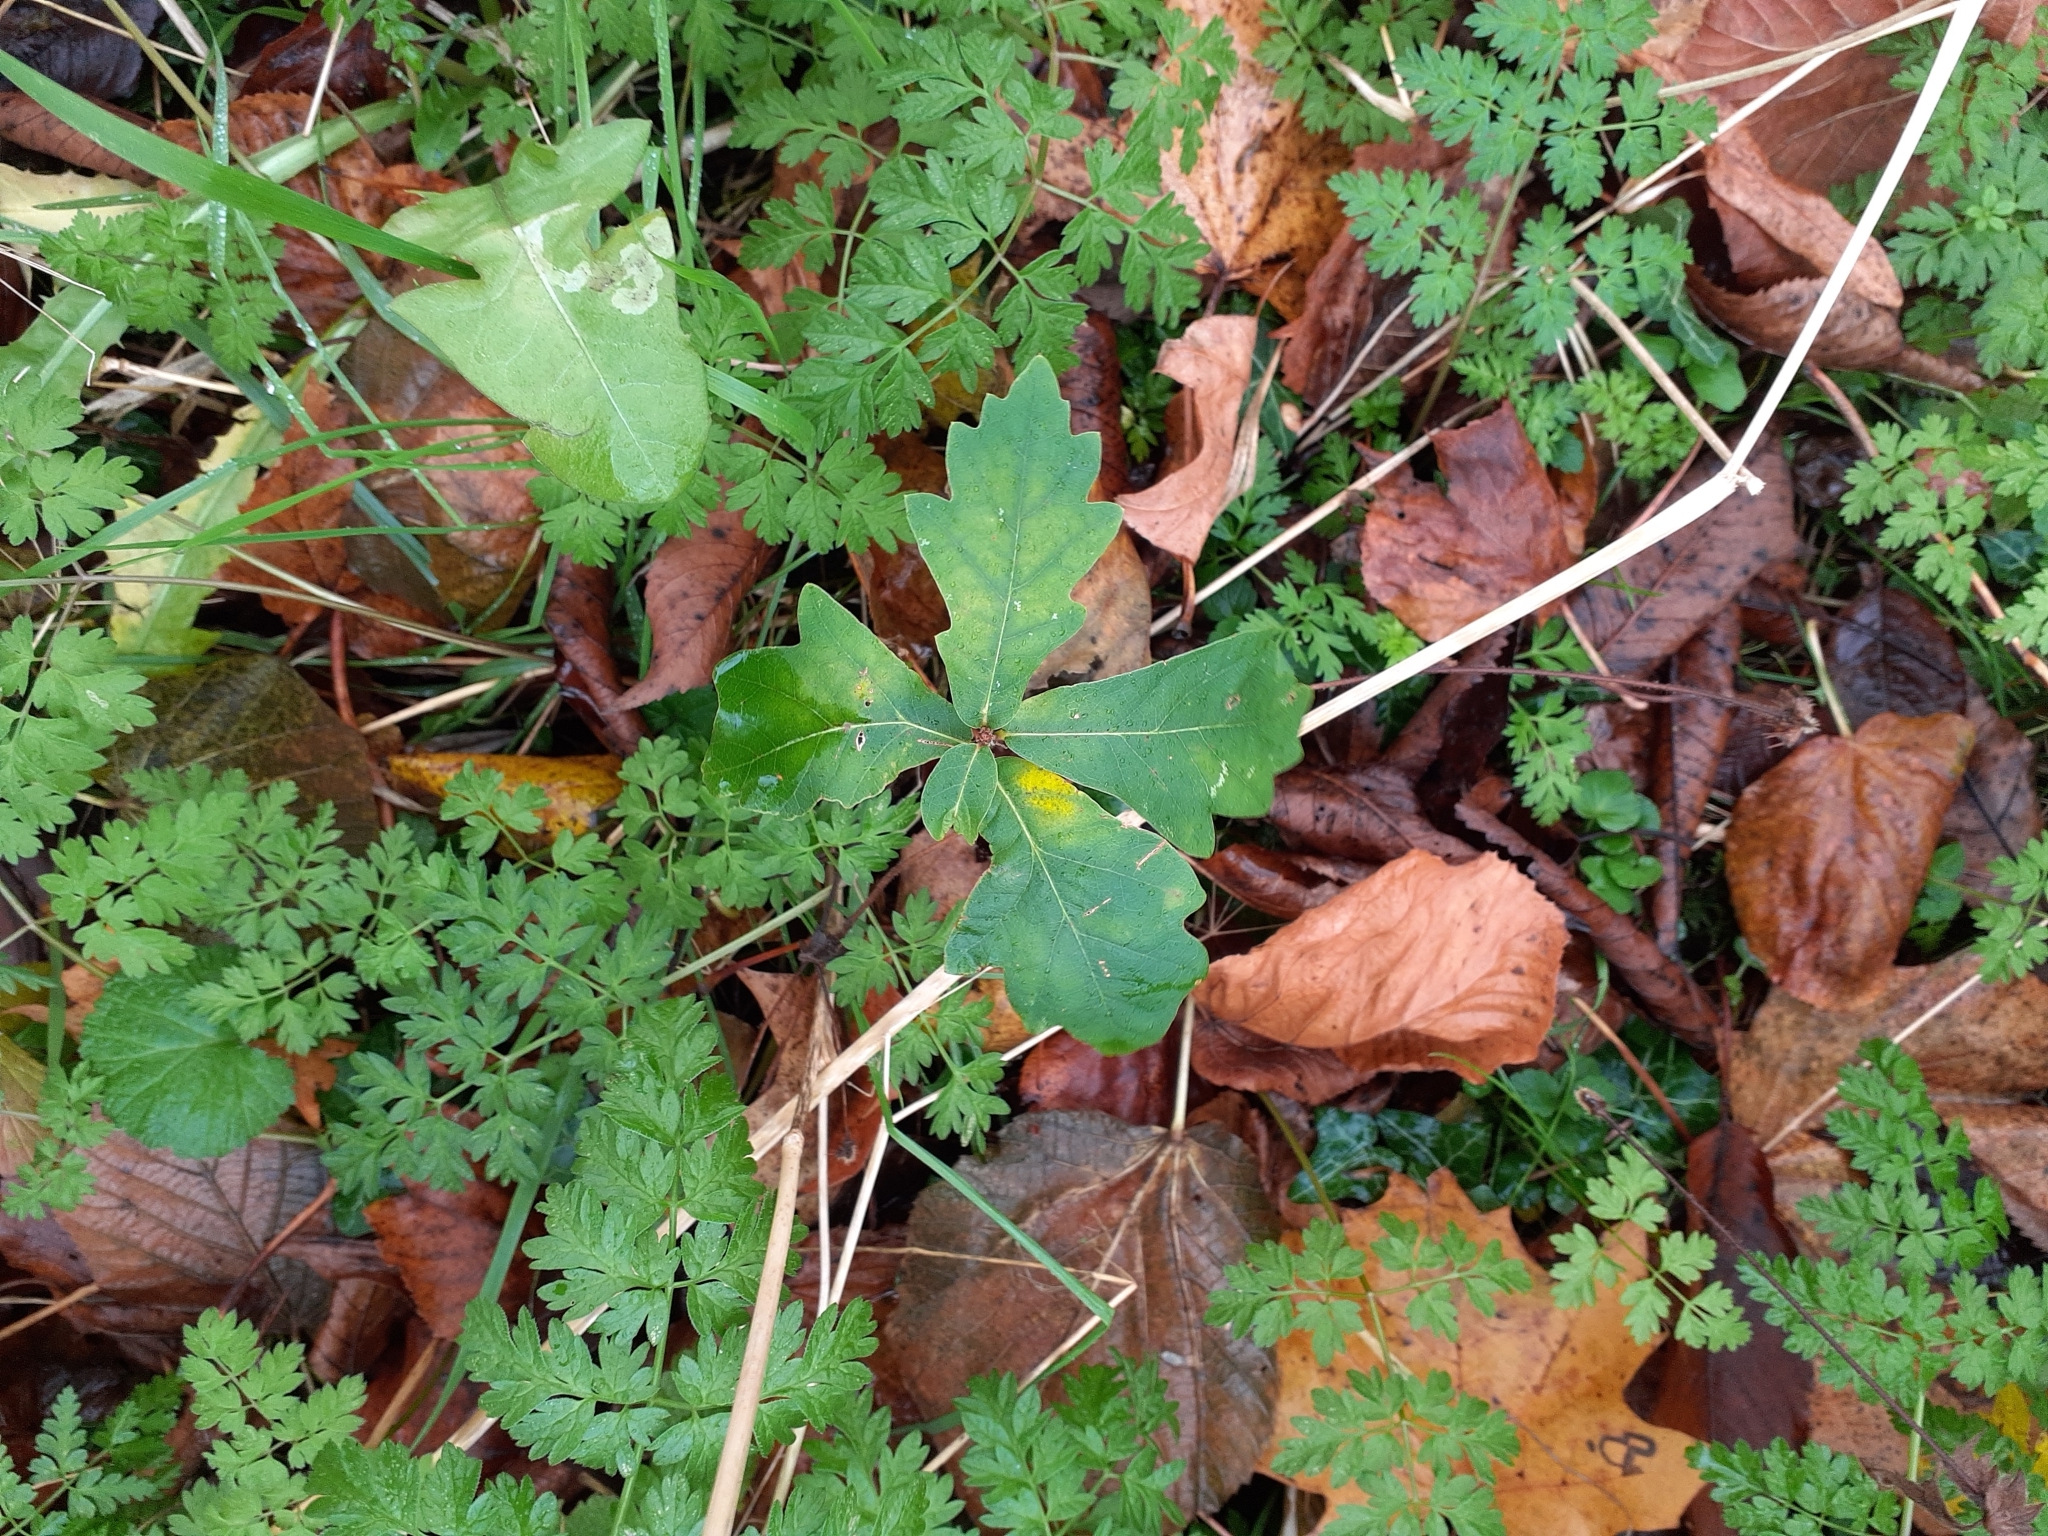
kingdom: Plantae
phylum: Tracheophyta
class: Magnoliopsida
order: Fagales
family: Fagaceae
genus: Quercus
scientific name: Quercus robur
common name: Pedunculate oak
